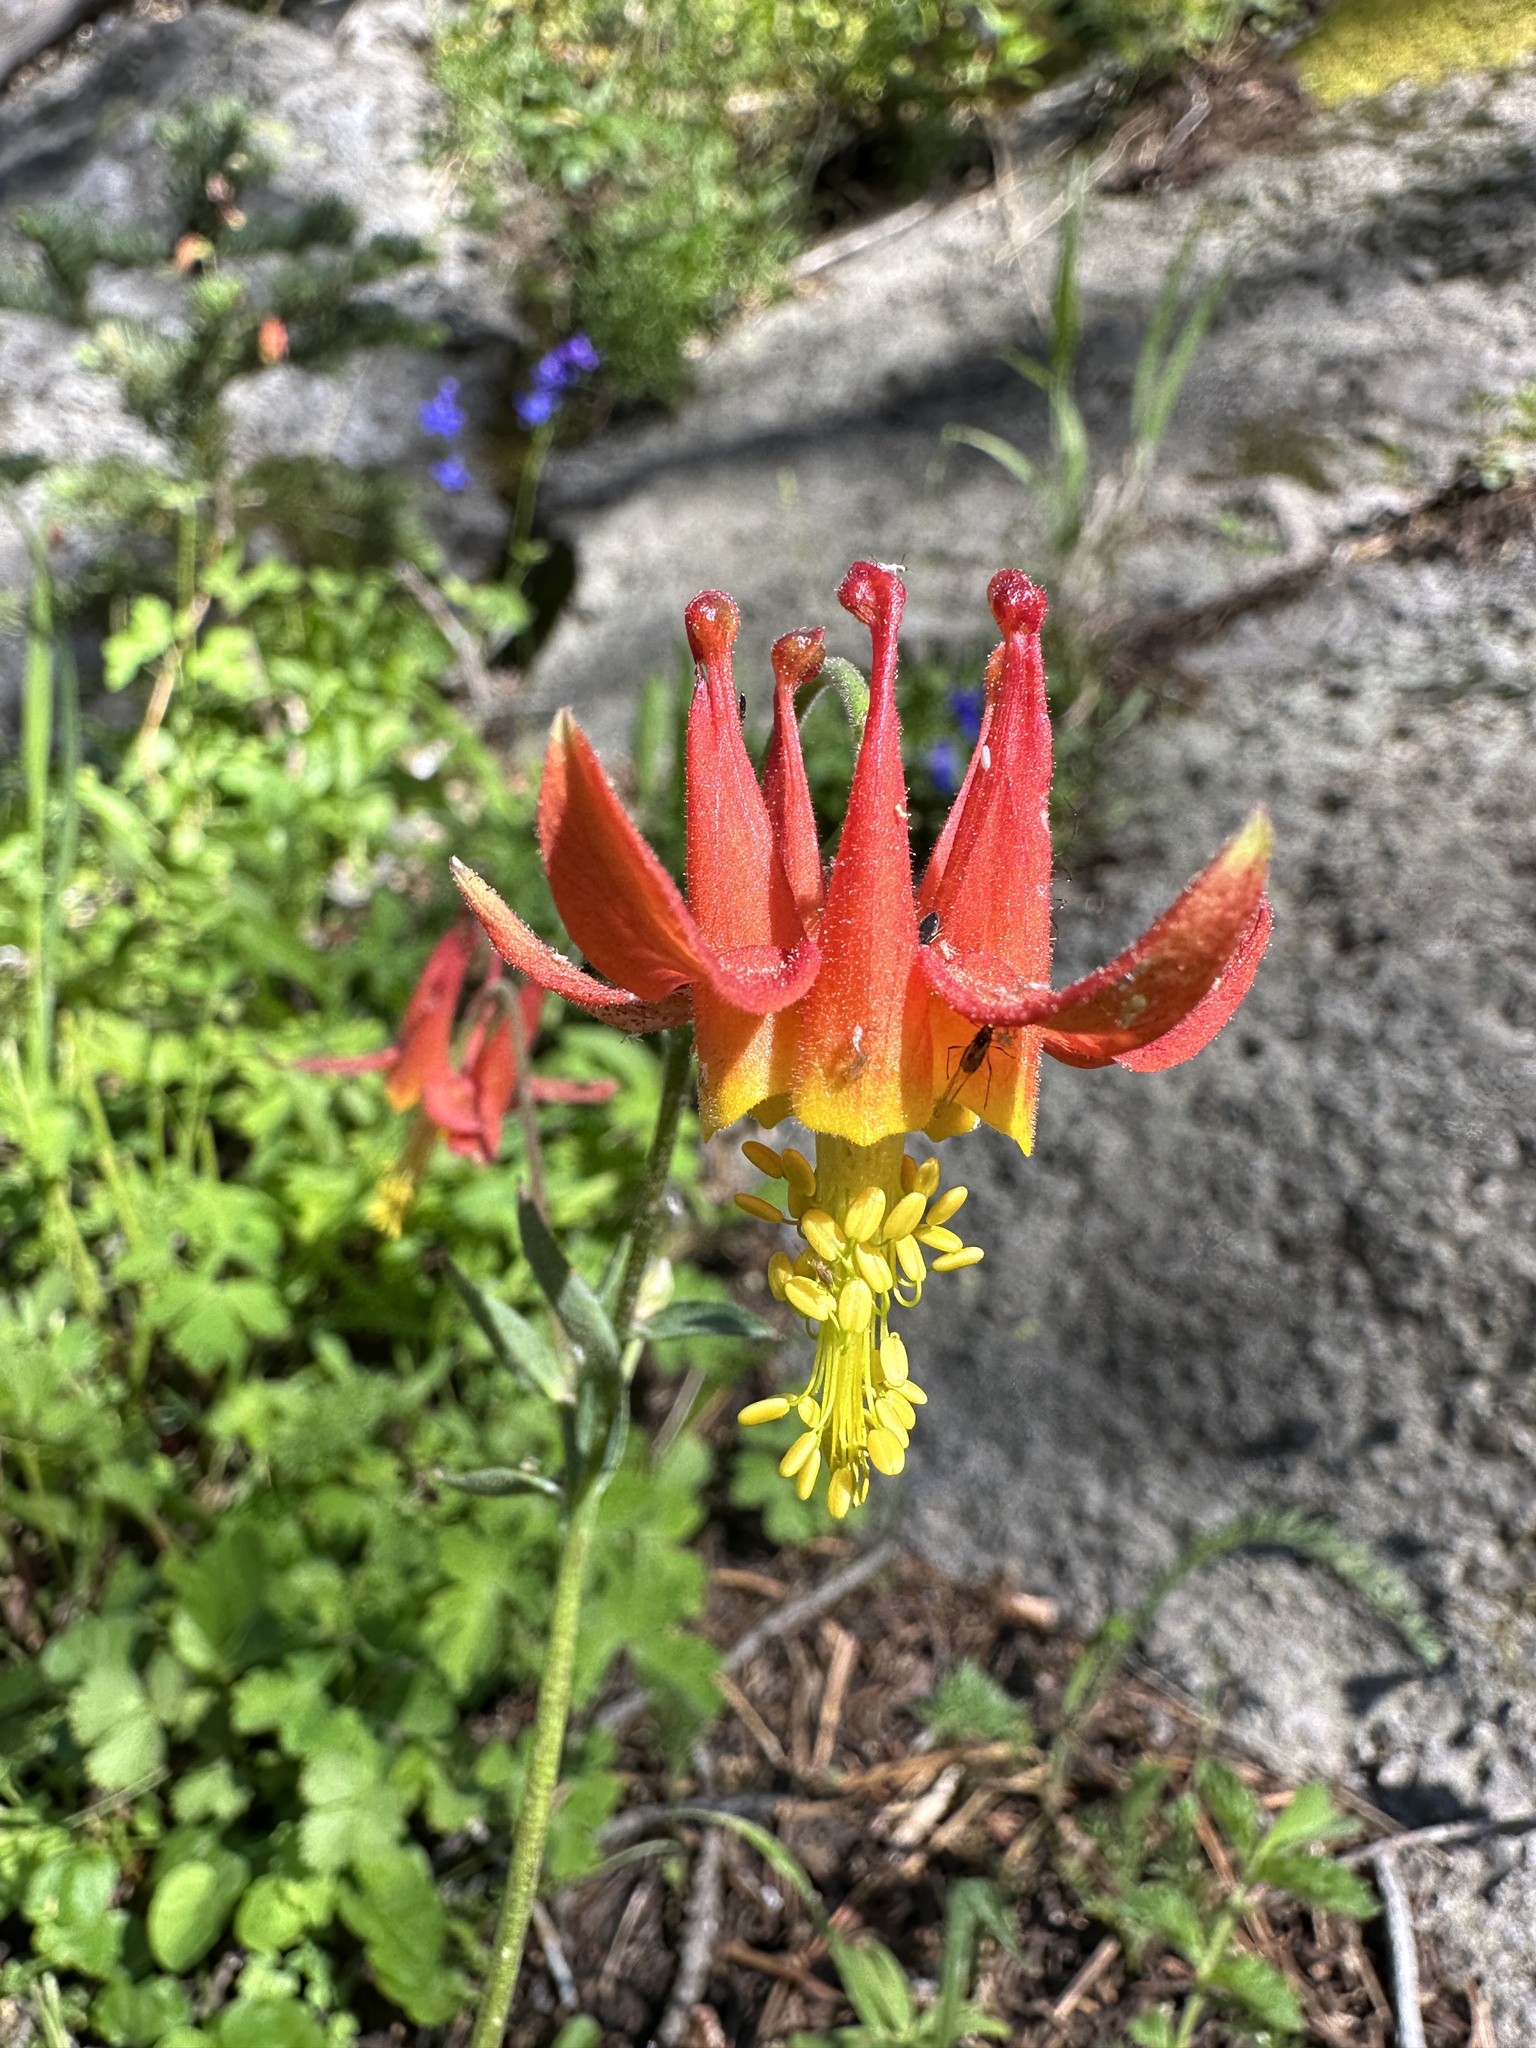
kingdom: Plantae
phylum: Tracheophyta
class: Magnoliopsida
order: Ranunculales
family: Ranunculaceae
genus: Aquilegia
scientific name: Aquilegia formosa
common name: Sitka columbine
